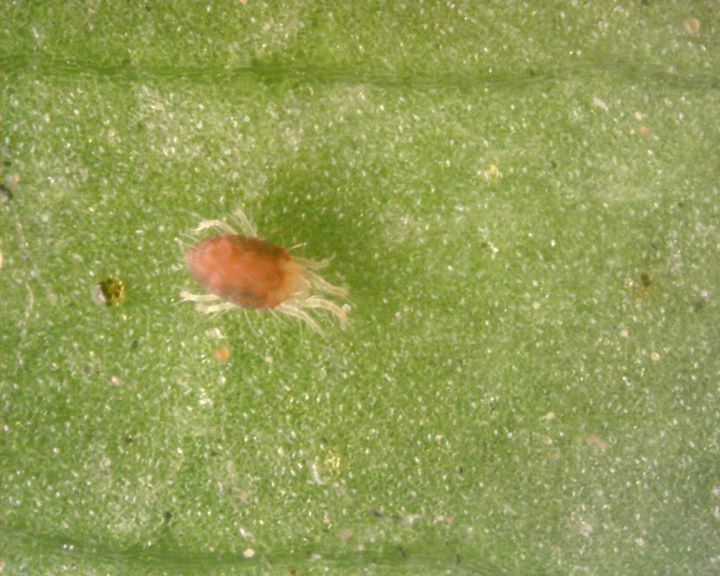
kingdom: Animalia
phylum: Arthropoda
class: Arachnida
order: Trombidiformes
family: Tetranychidae
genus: Tetranychus
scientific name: Tetranychus urticae
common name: Carmine spider mite
